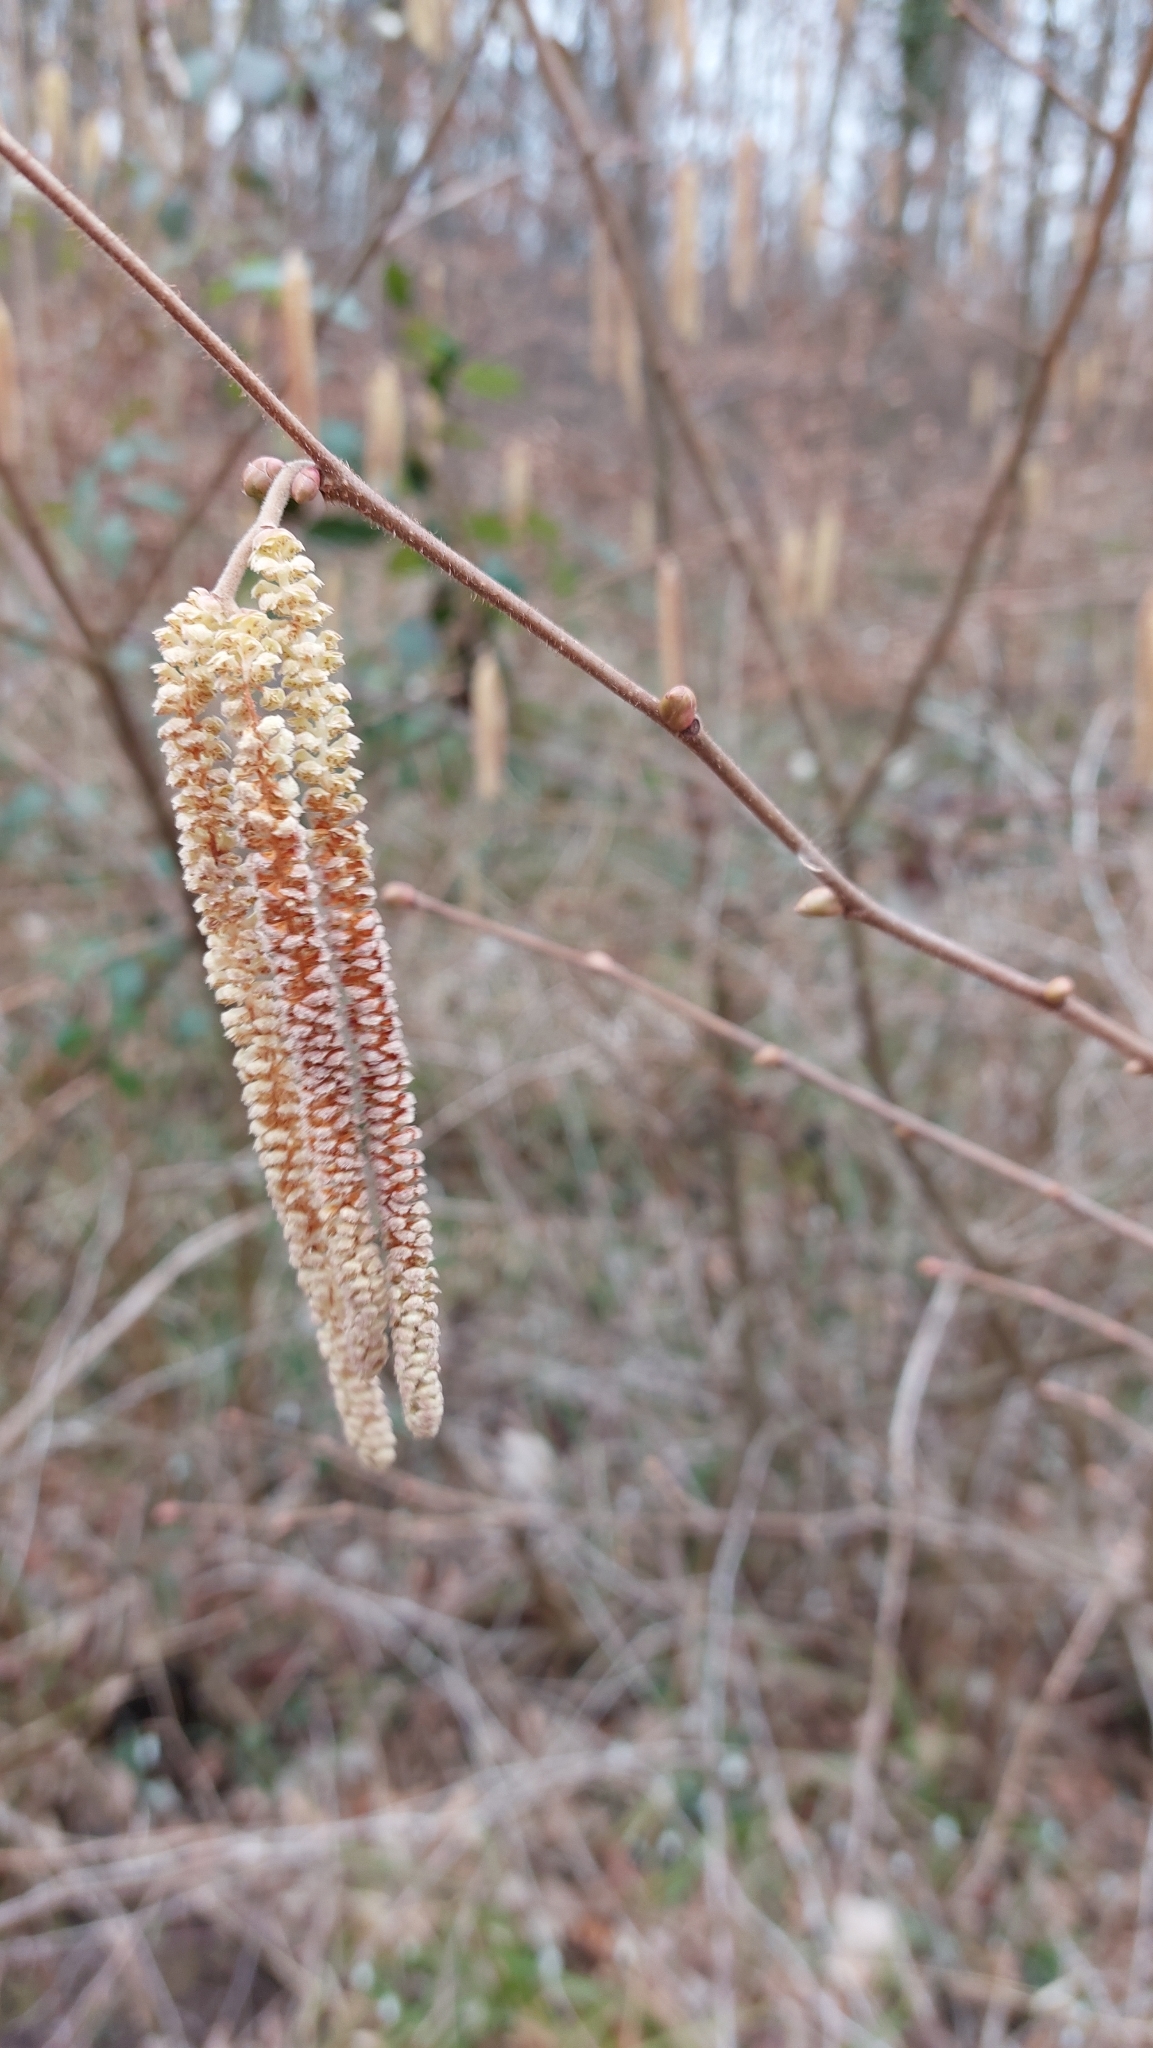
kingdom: Plantae
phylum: Tracheophyta
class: Magnoliopsida
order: Fagales
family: Betulaceae
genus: Corylus
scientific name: Corylus avellana
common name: European hazel
